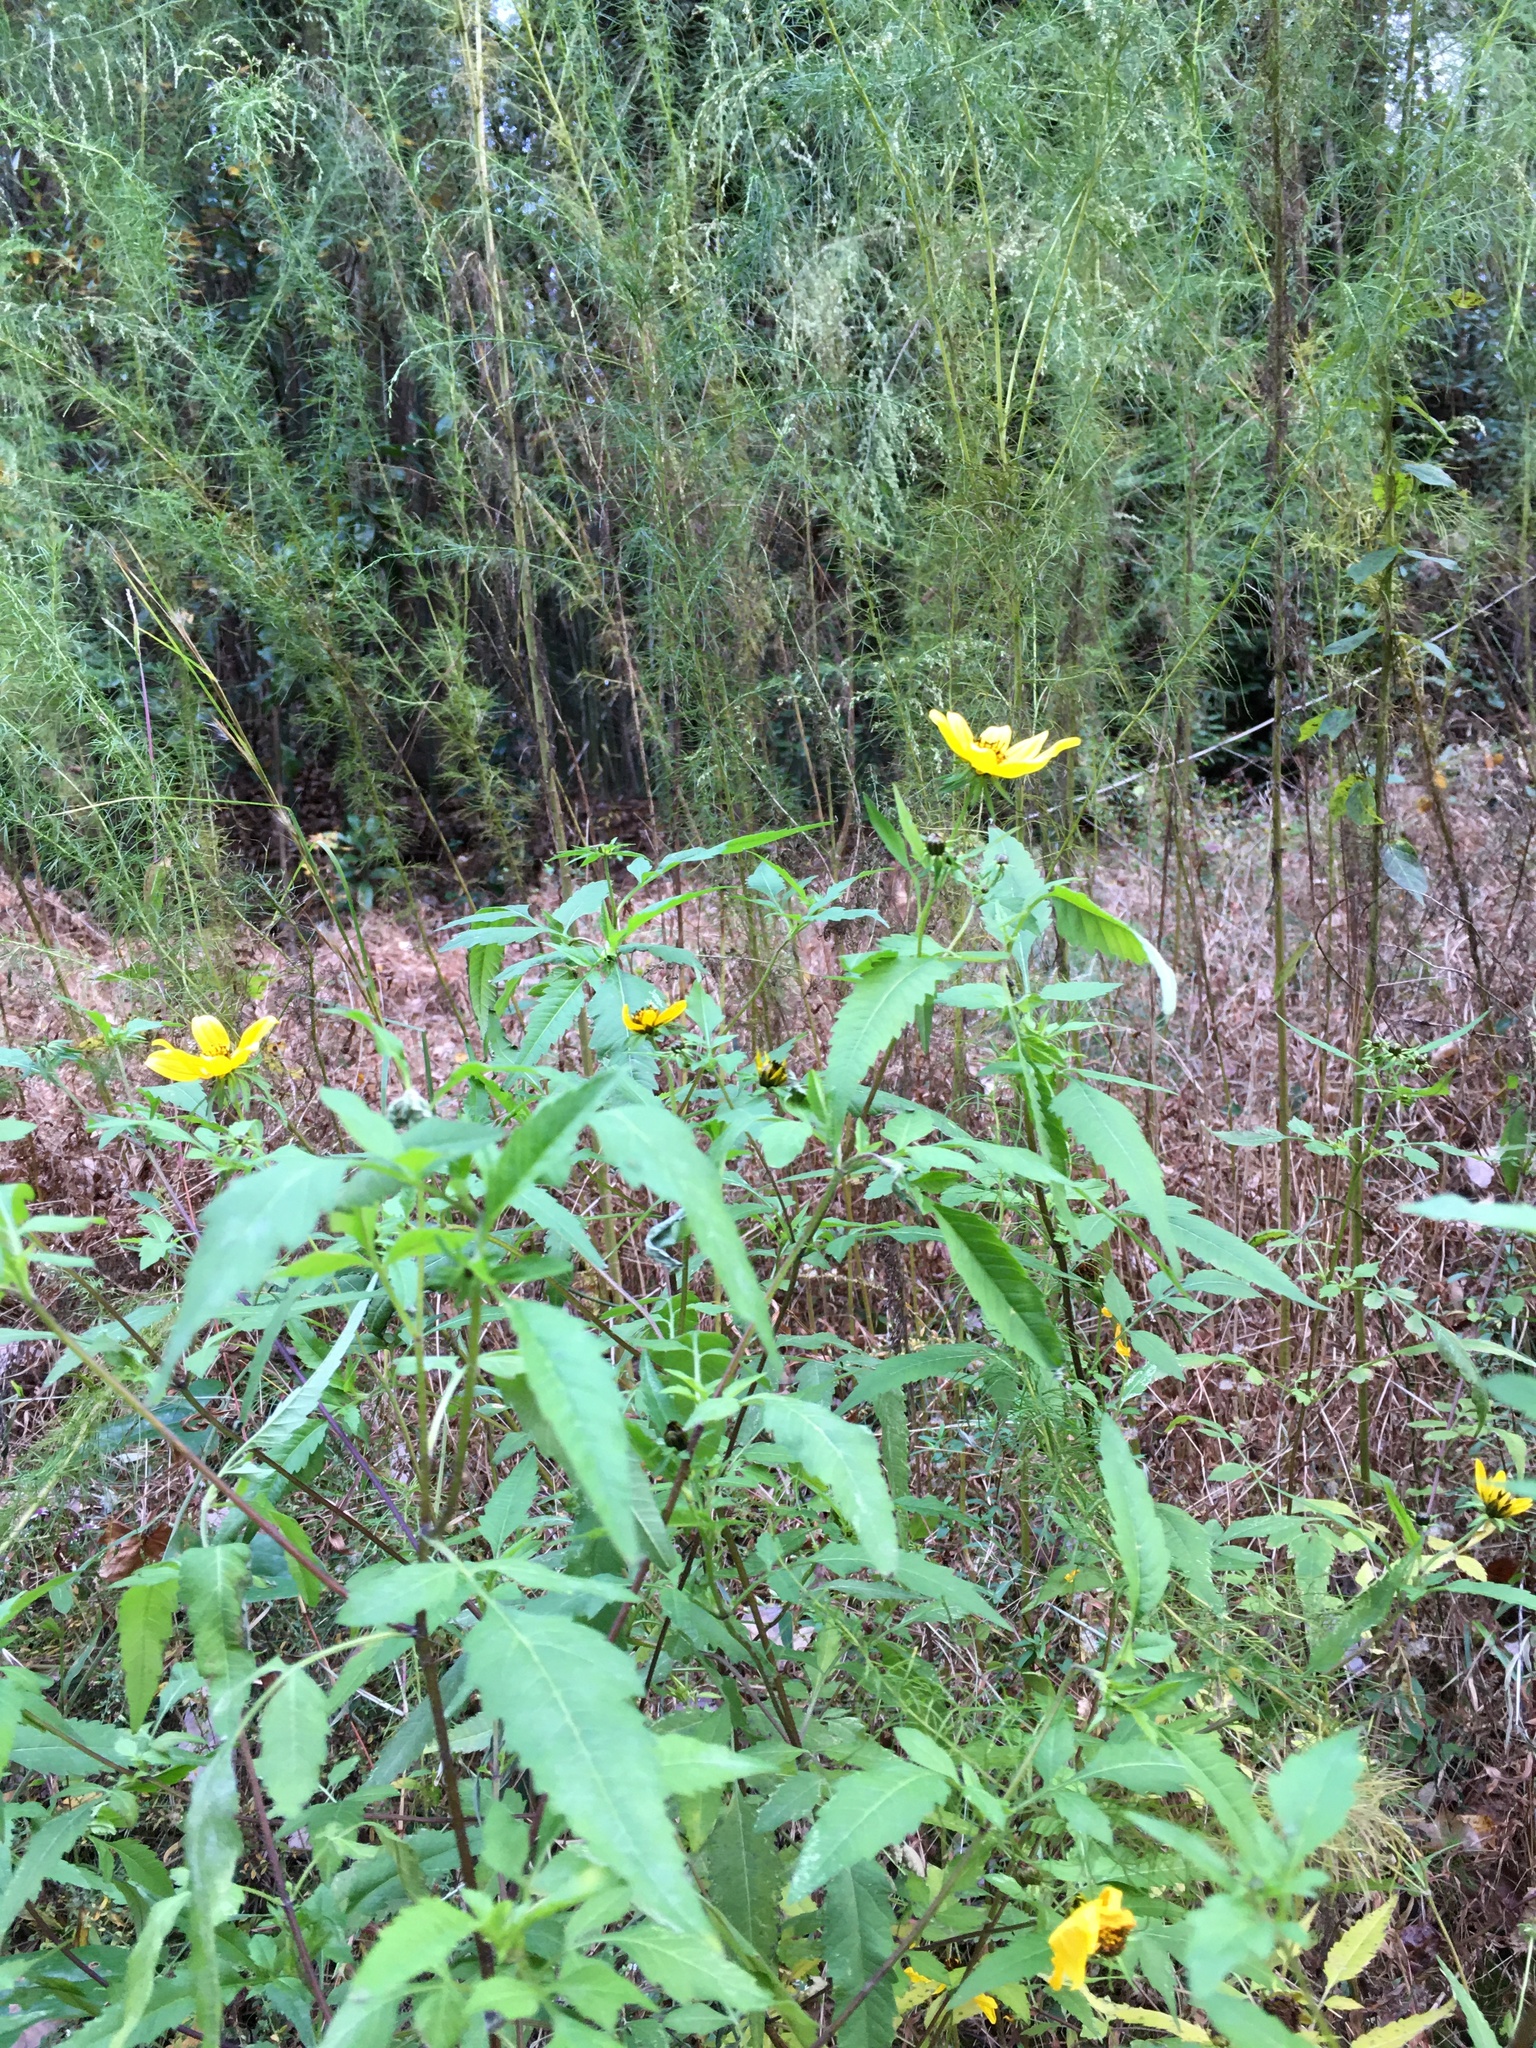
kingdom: Plantae
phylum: Tracheophyta
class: Magnoliopsida
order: Asterales
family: Asteraceae
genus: Bidens
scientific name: Bidens aristosa
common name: Western tickseed
